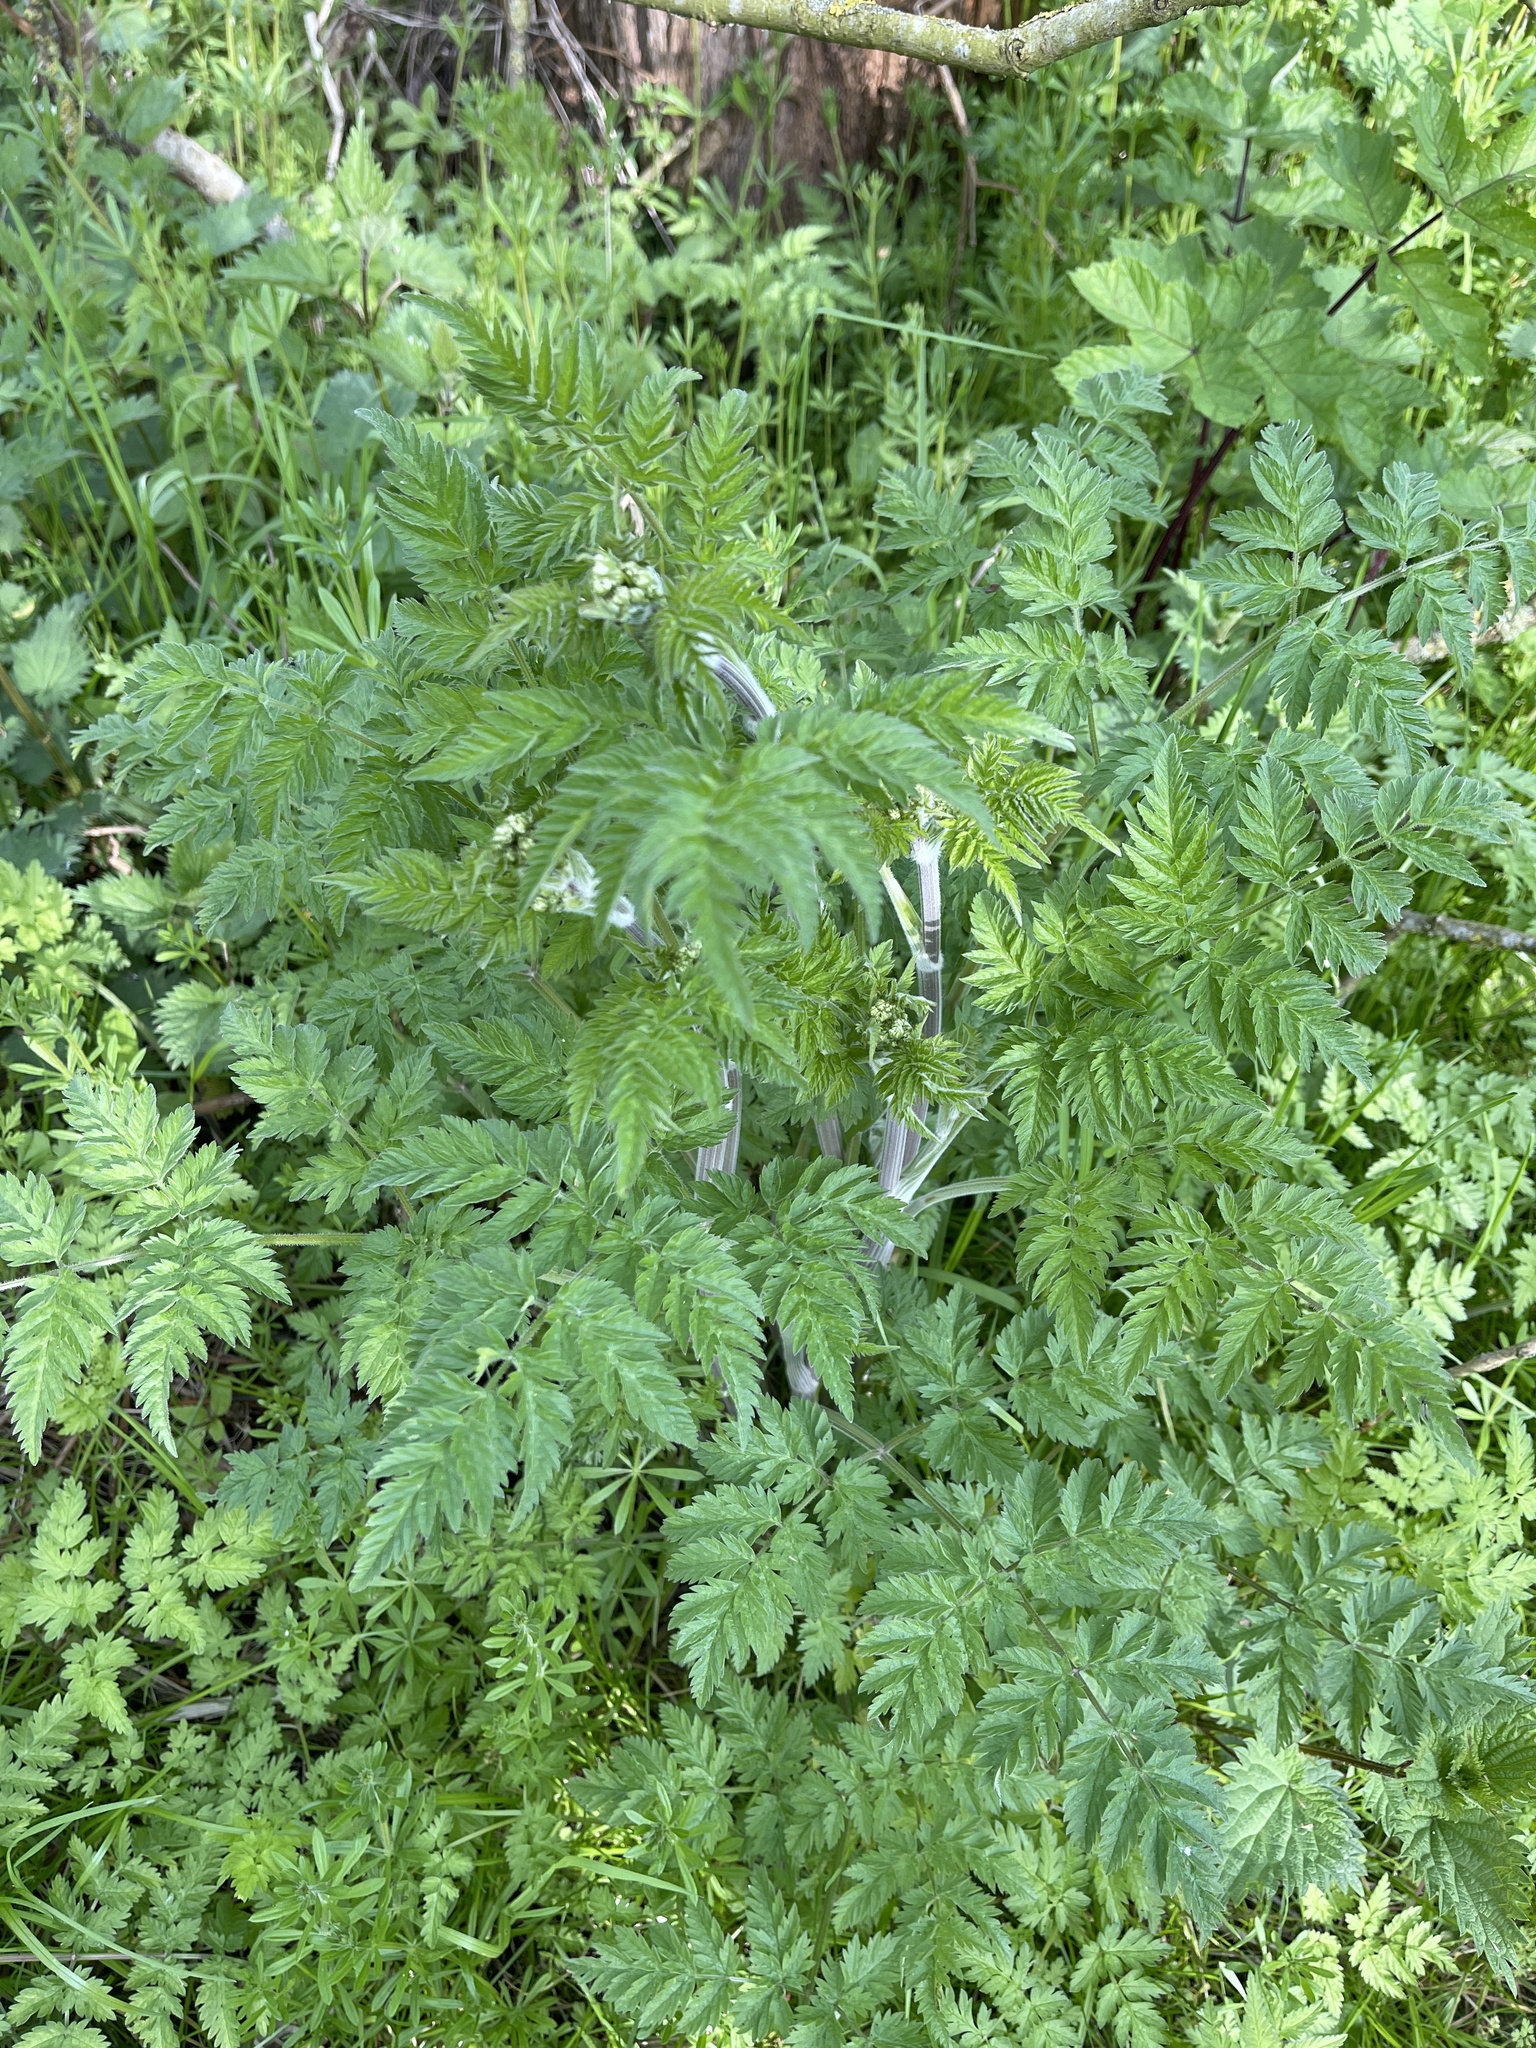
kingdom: Plantae
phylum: Tracheophyta
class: Magnoliopsida
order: Apiales
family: Apiaceae
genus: Anthriscus
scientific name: Anthriscus sylvestris
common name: Cow parsley
